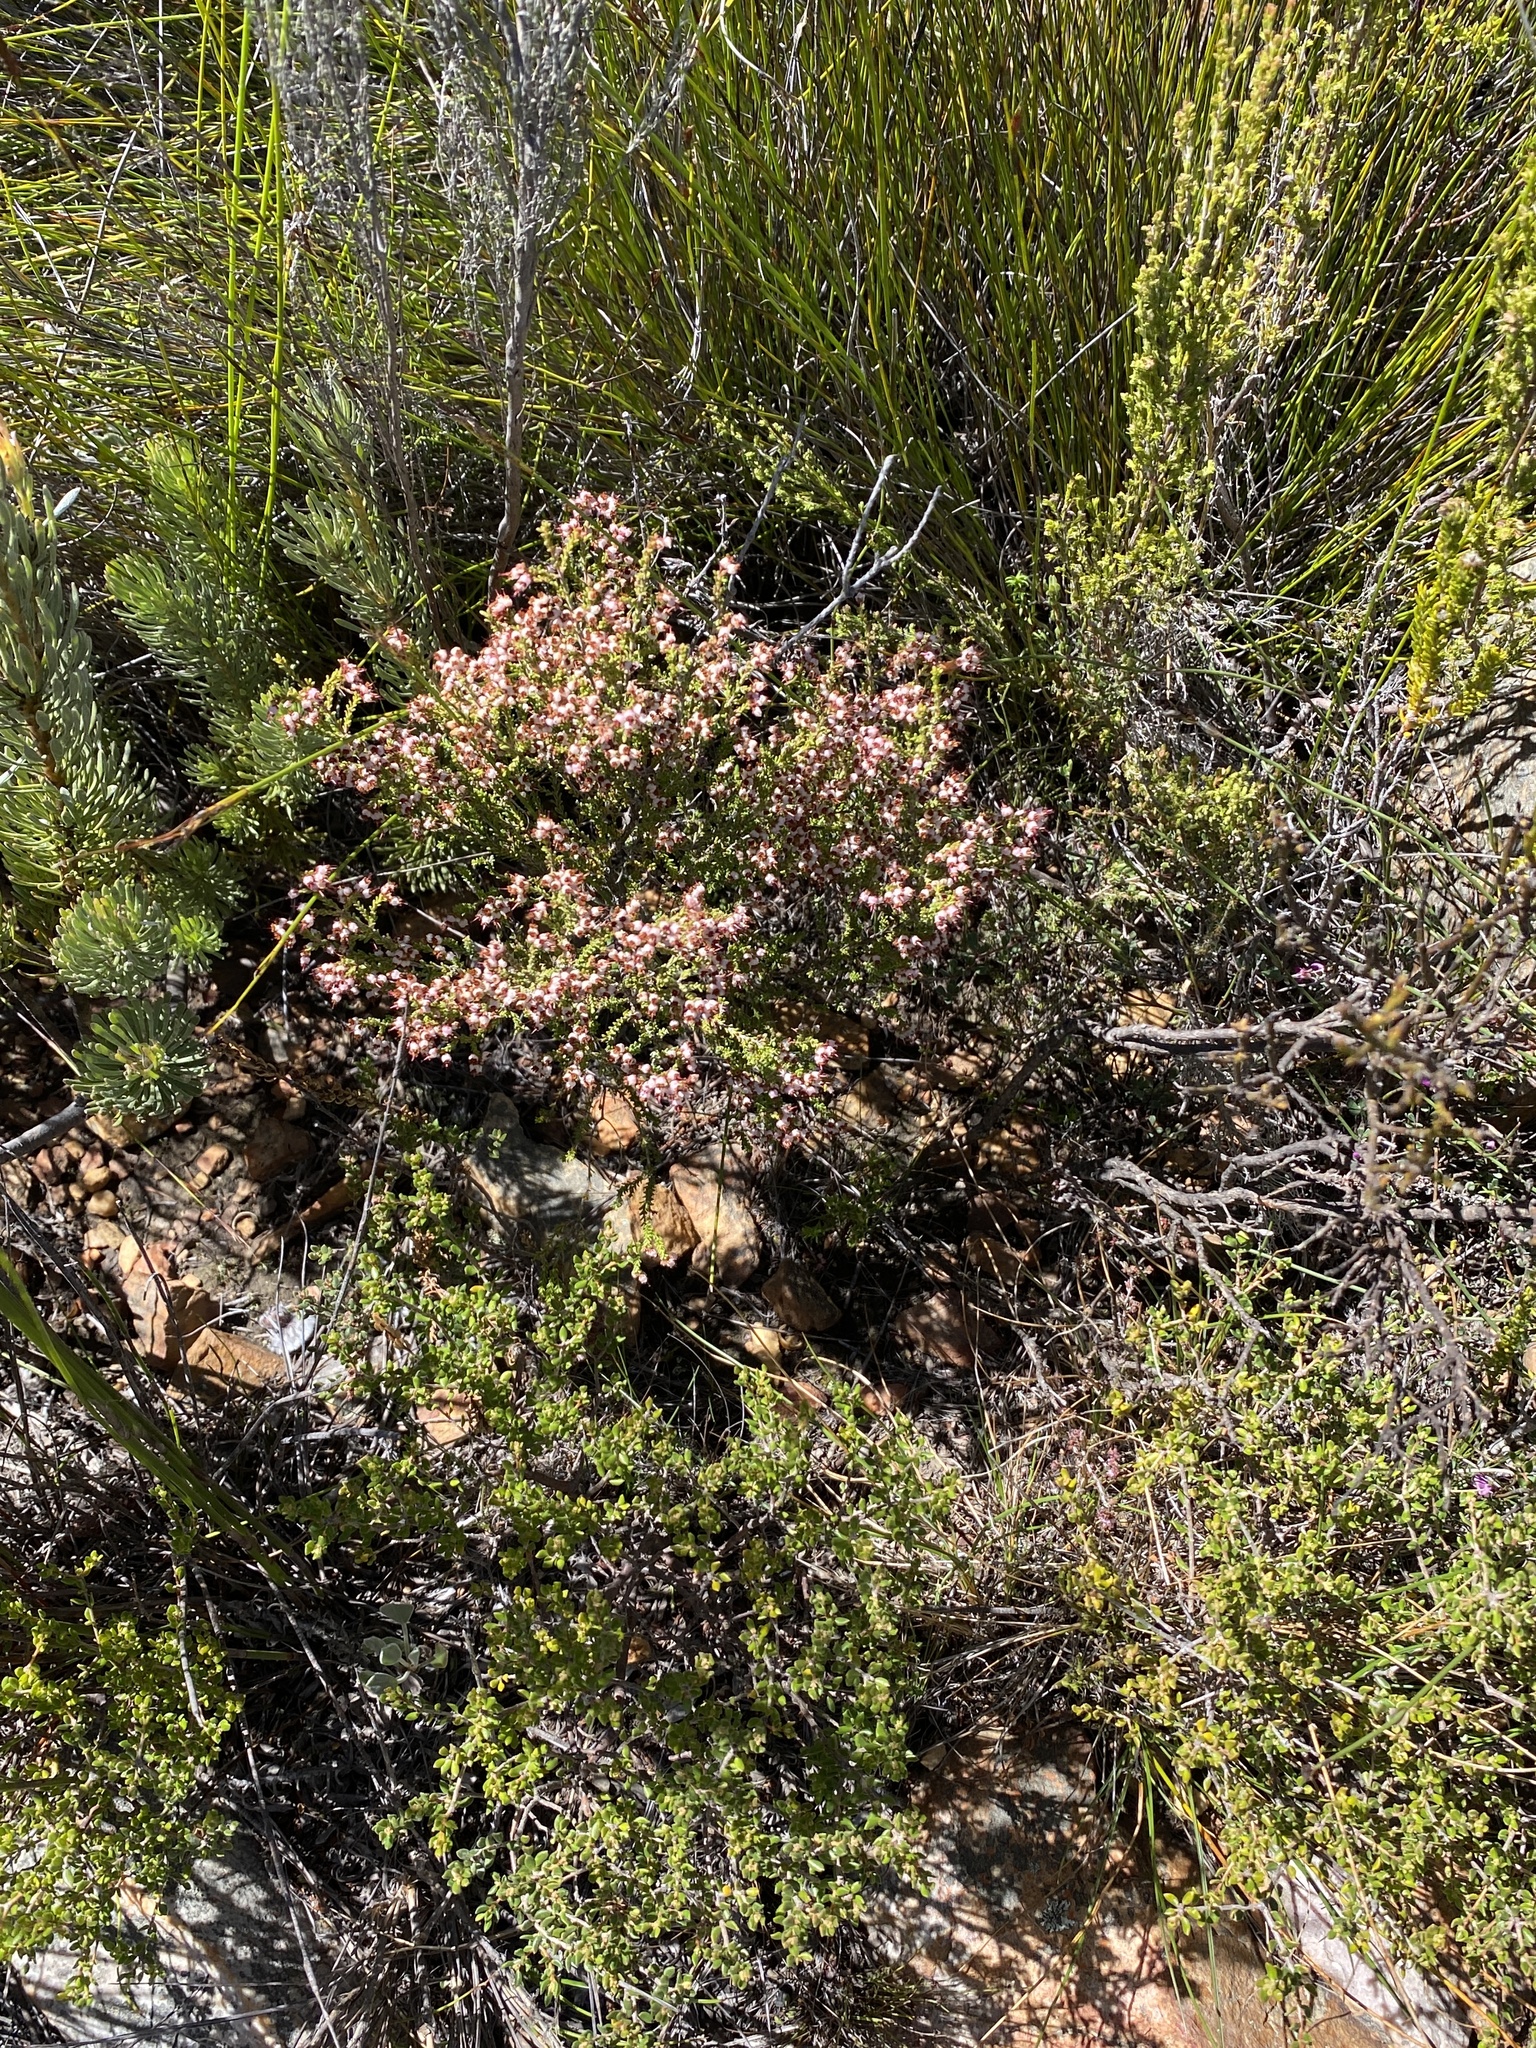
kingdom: Plantae
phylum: Tracheophyta
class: Magnoliopsida
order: Ericales
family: Ericaceae
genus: Erica
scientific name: Erica kougabergensis
